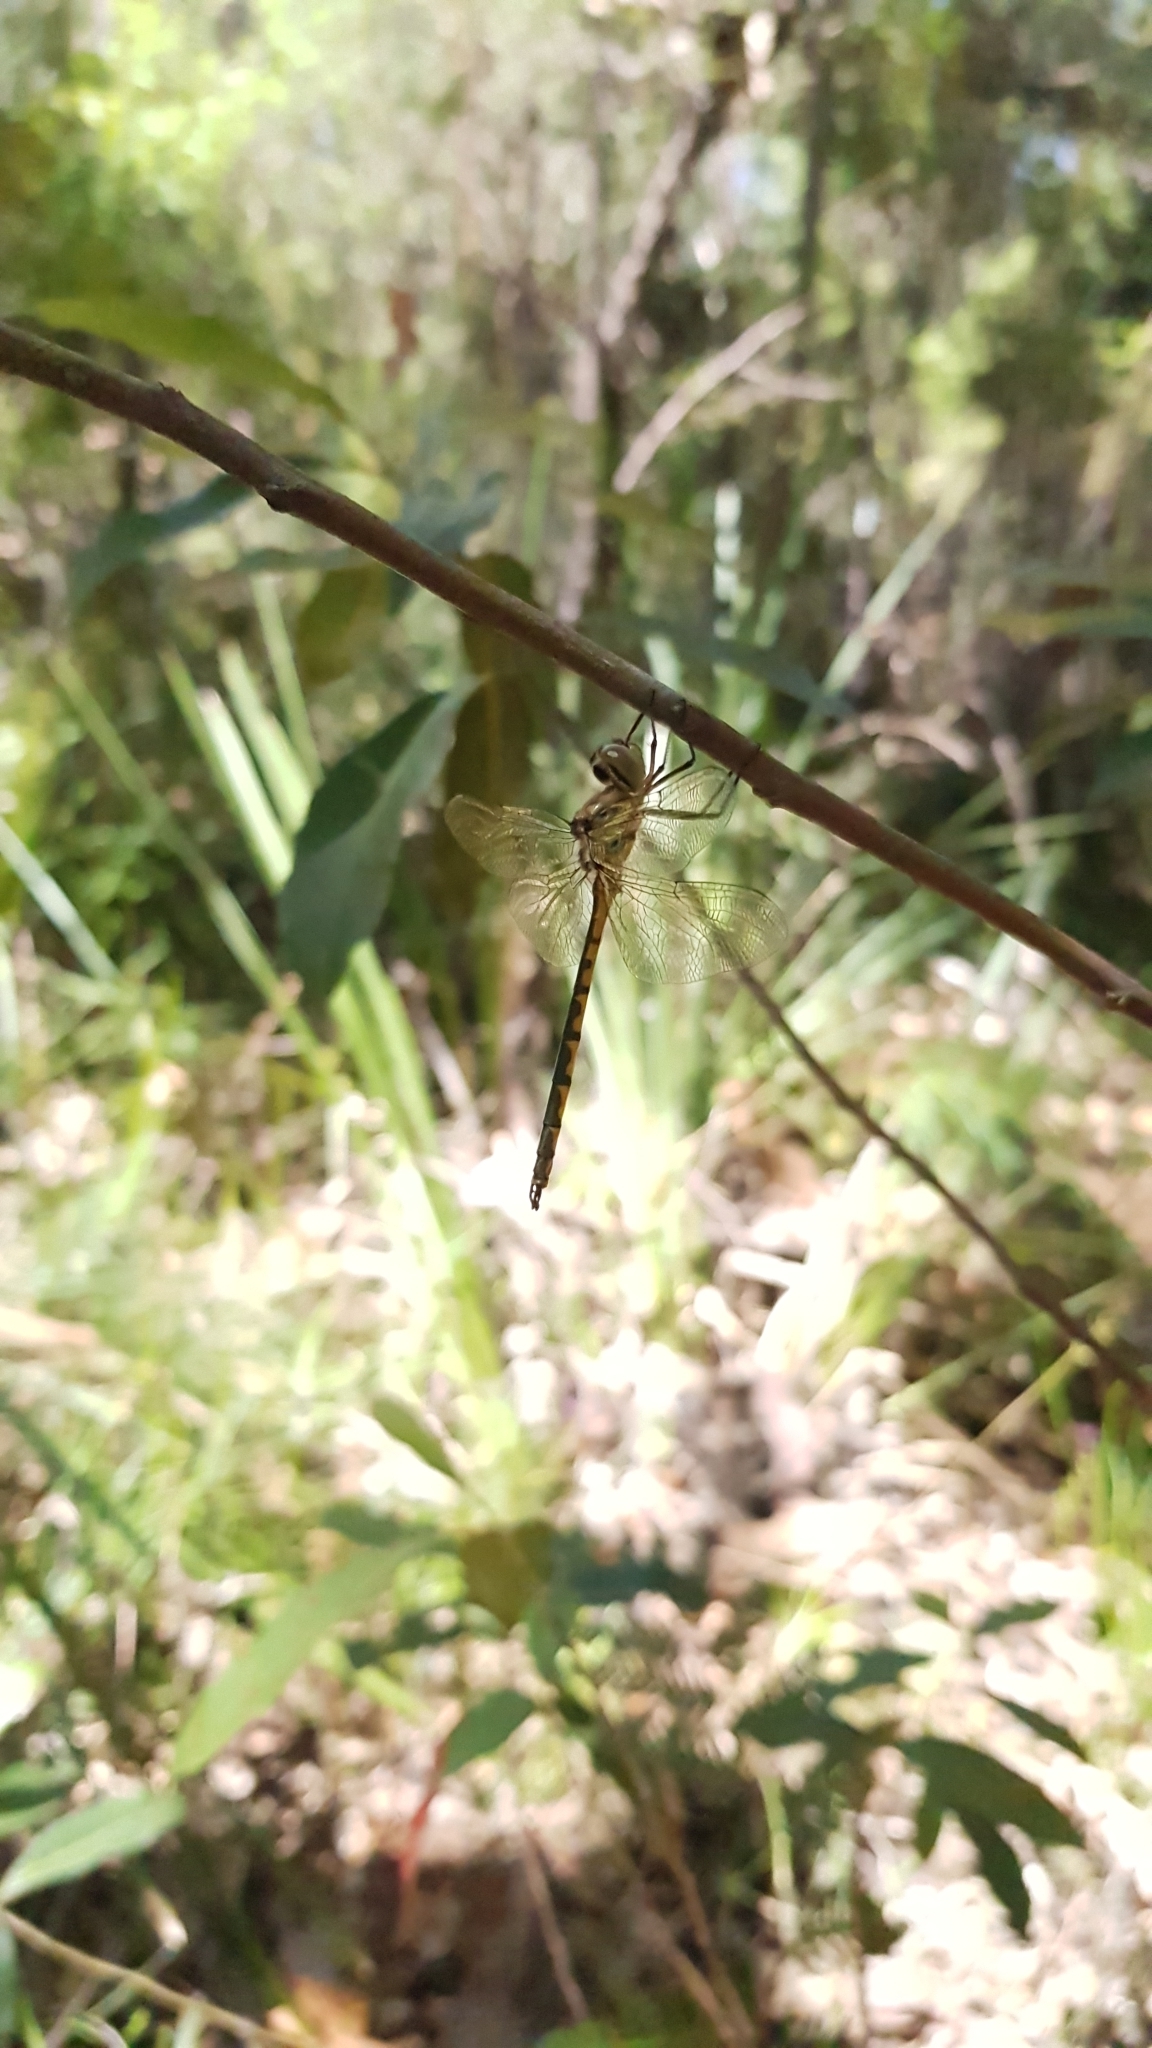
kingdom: Animalia
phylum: Arthropoda
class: Insecta
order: Odonata
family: Corduliidae
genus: Hemicordulia
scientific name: Hemicordulia australiae
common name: Sentry dragonfly
